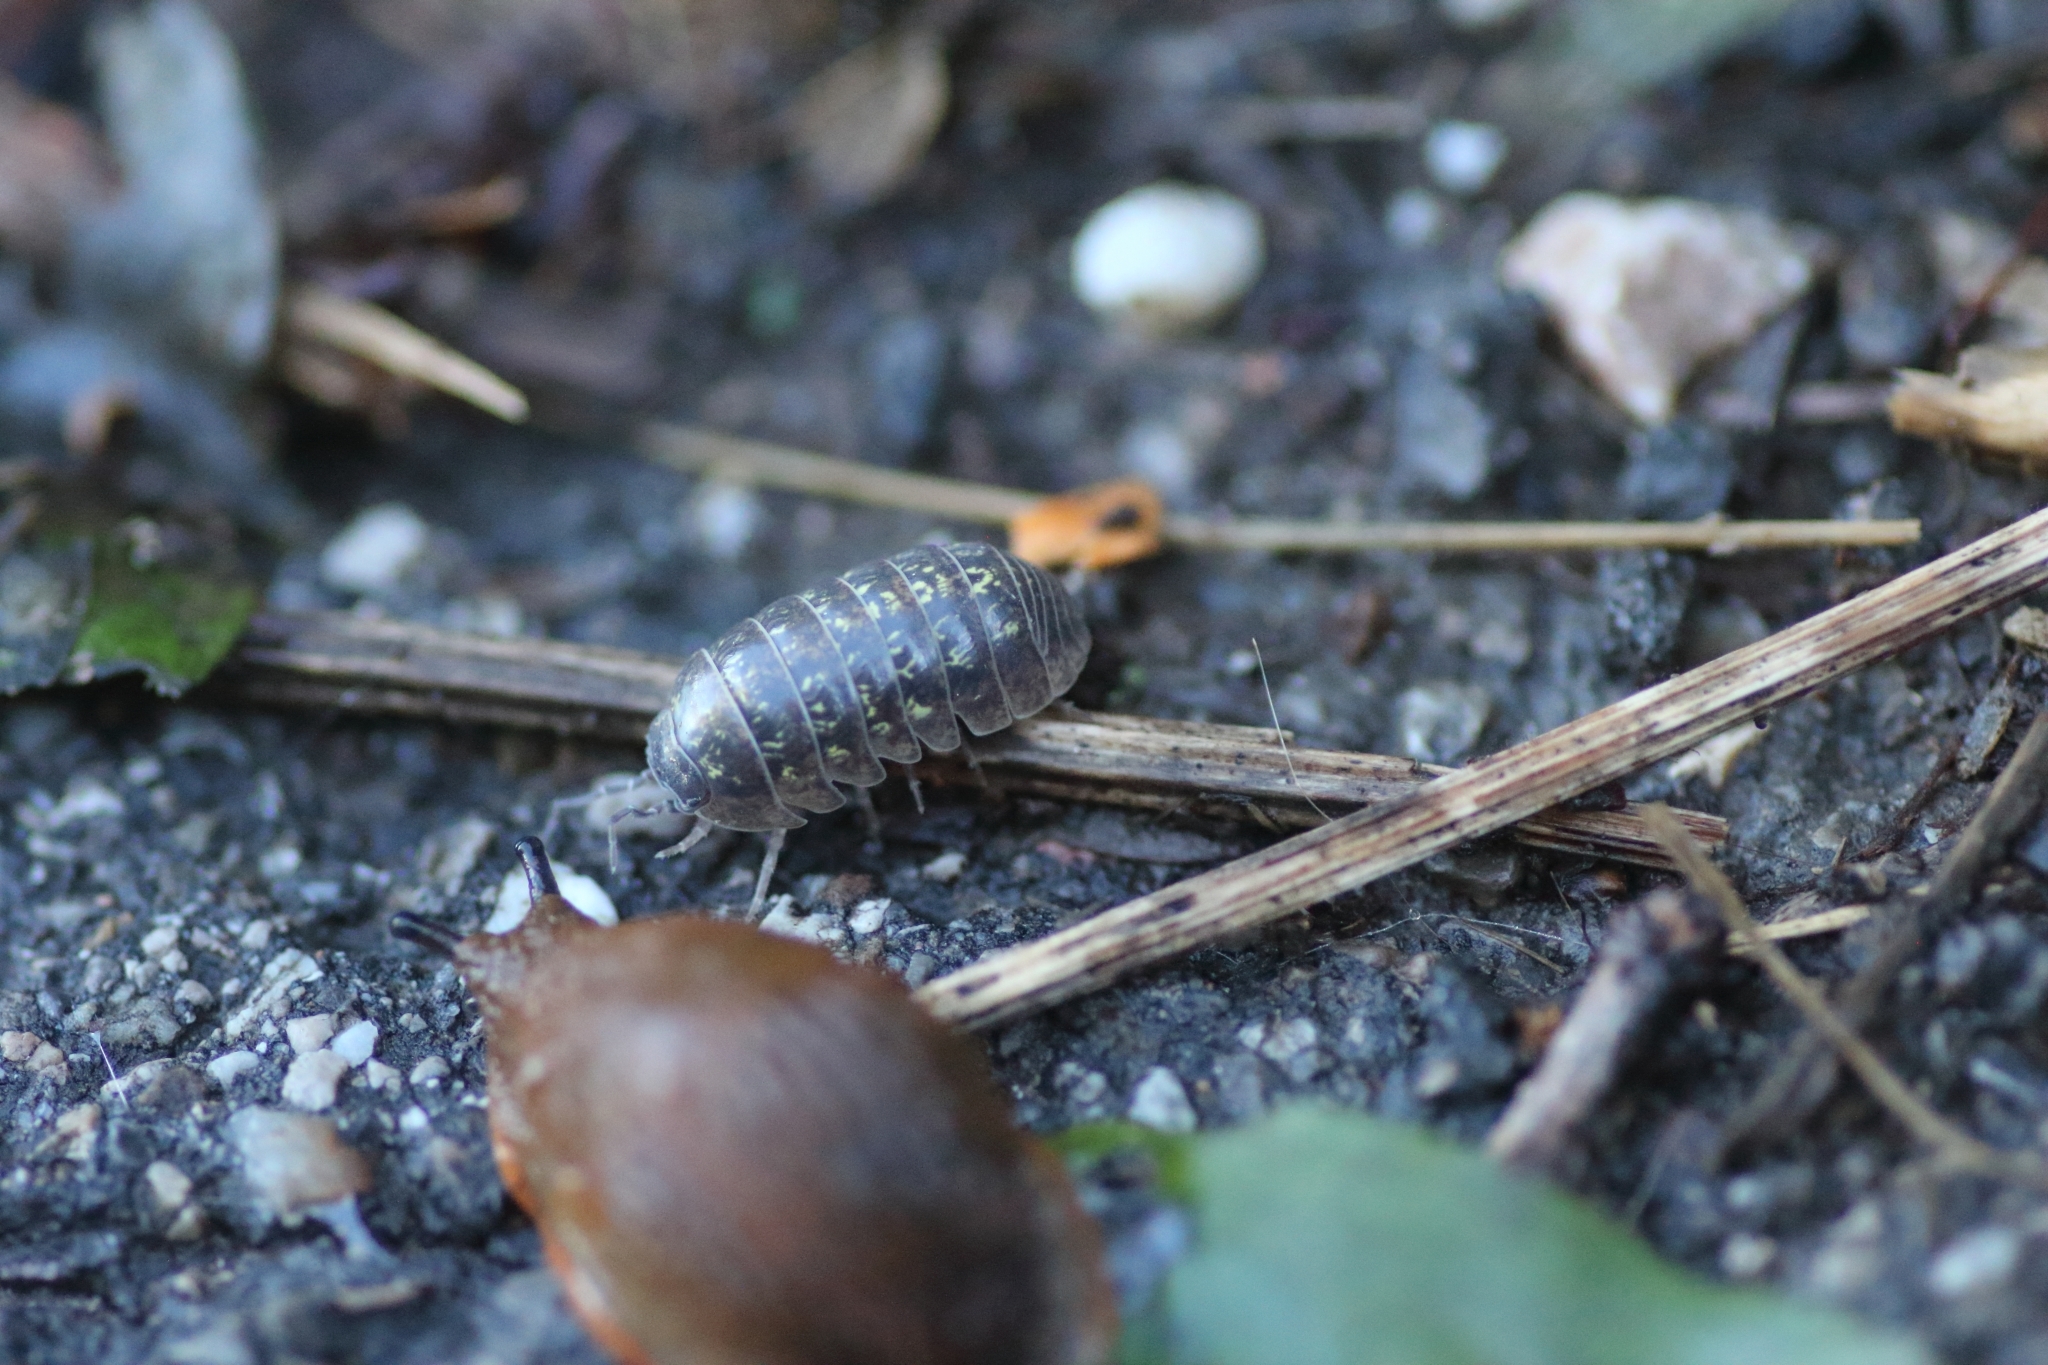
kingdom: Animalia
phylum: Arthropoda
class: Malacostraca
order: Isopoda
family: Armadillidiidae
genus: Armadillidium
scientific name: Armadillidium vulgare
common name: Common pill woodlouse
